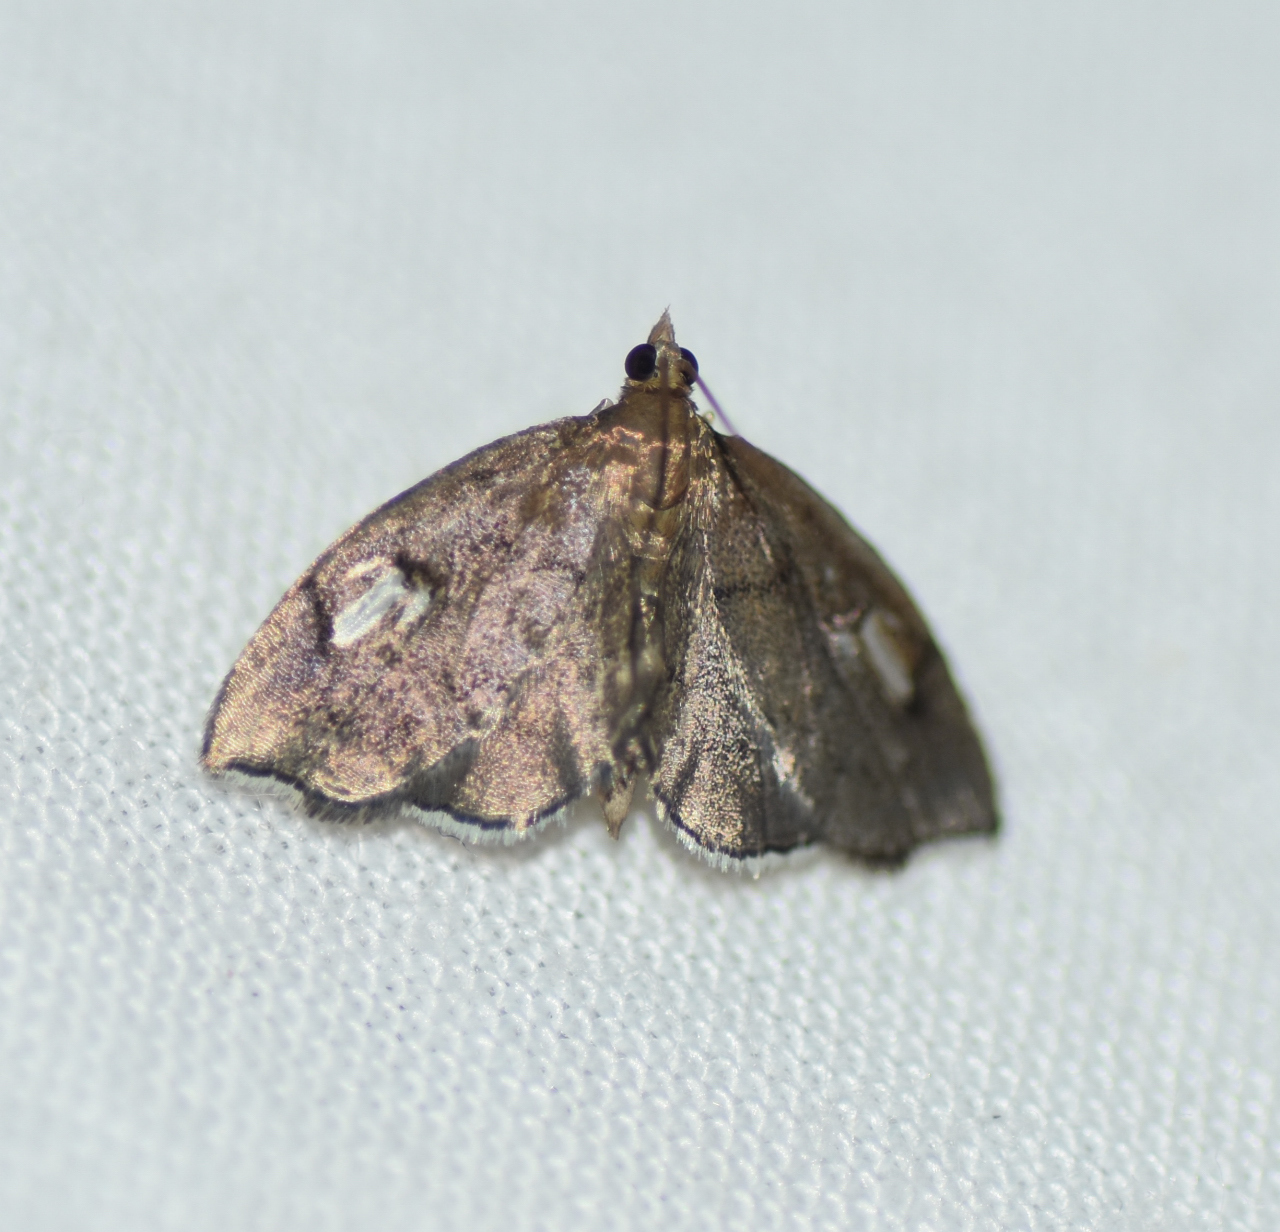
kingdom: Animalia
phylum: Arthropoda
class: Insecta
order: Lepidoptera
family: Crambidae
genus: Perispasta
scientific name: Perispasta caeculalis
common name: Titian peale's moth
